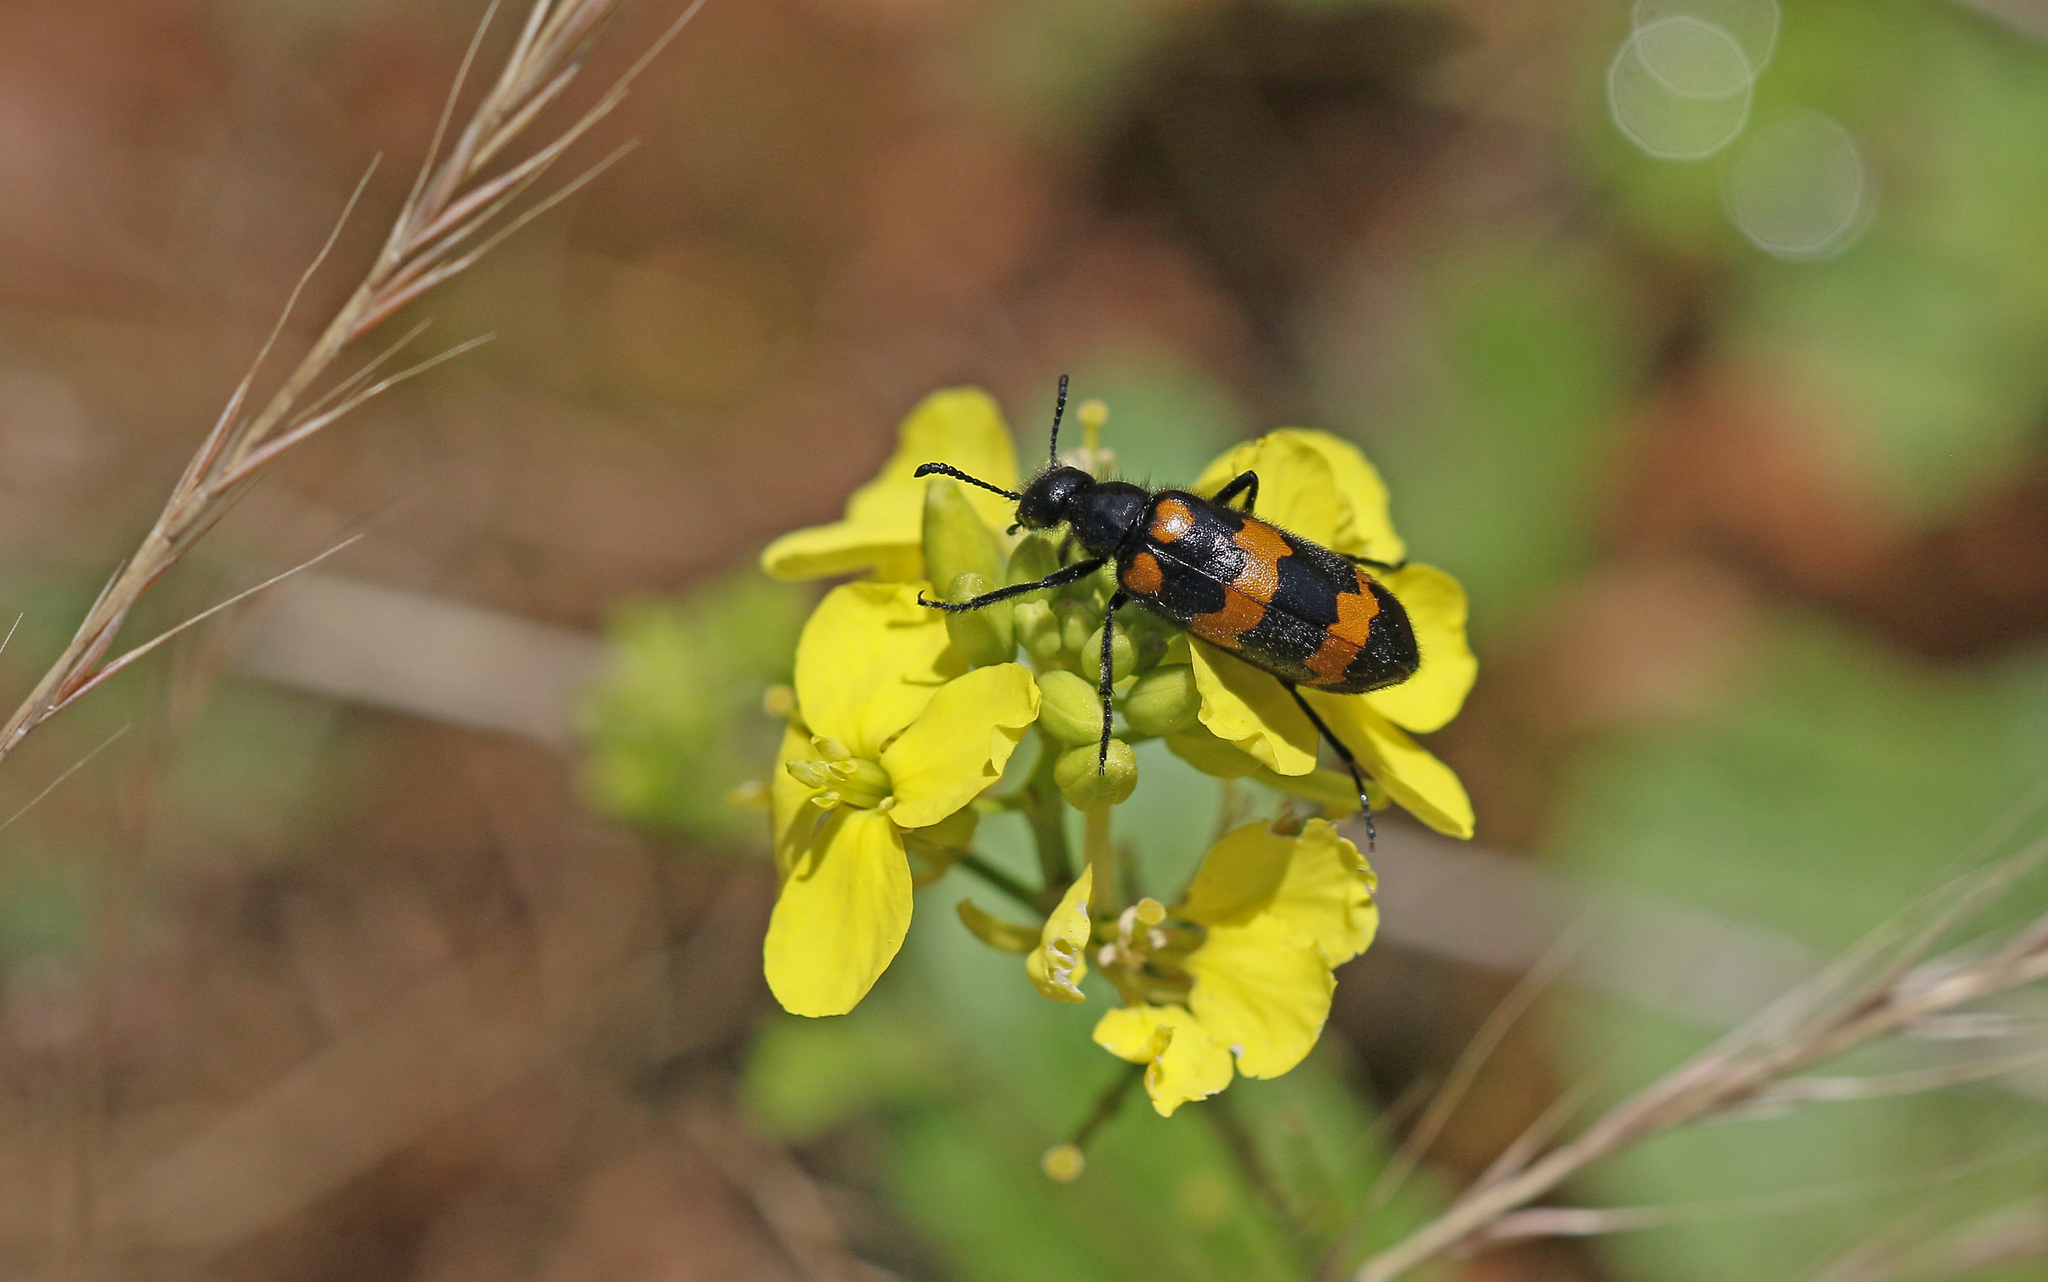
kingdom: Animalia
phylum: Arthropoda
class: Insecta
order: Coleoptera
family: Meloidae
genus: Mylabris
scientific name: Mylabris variabilis
